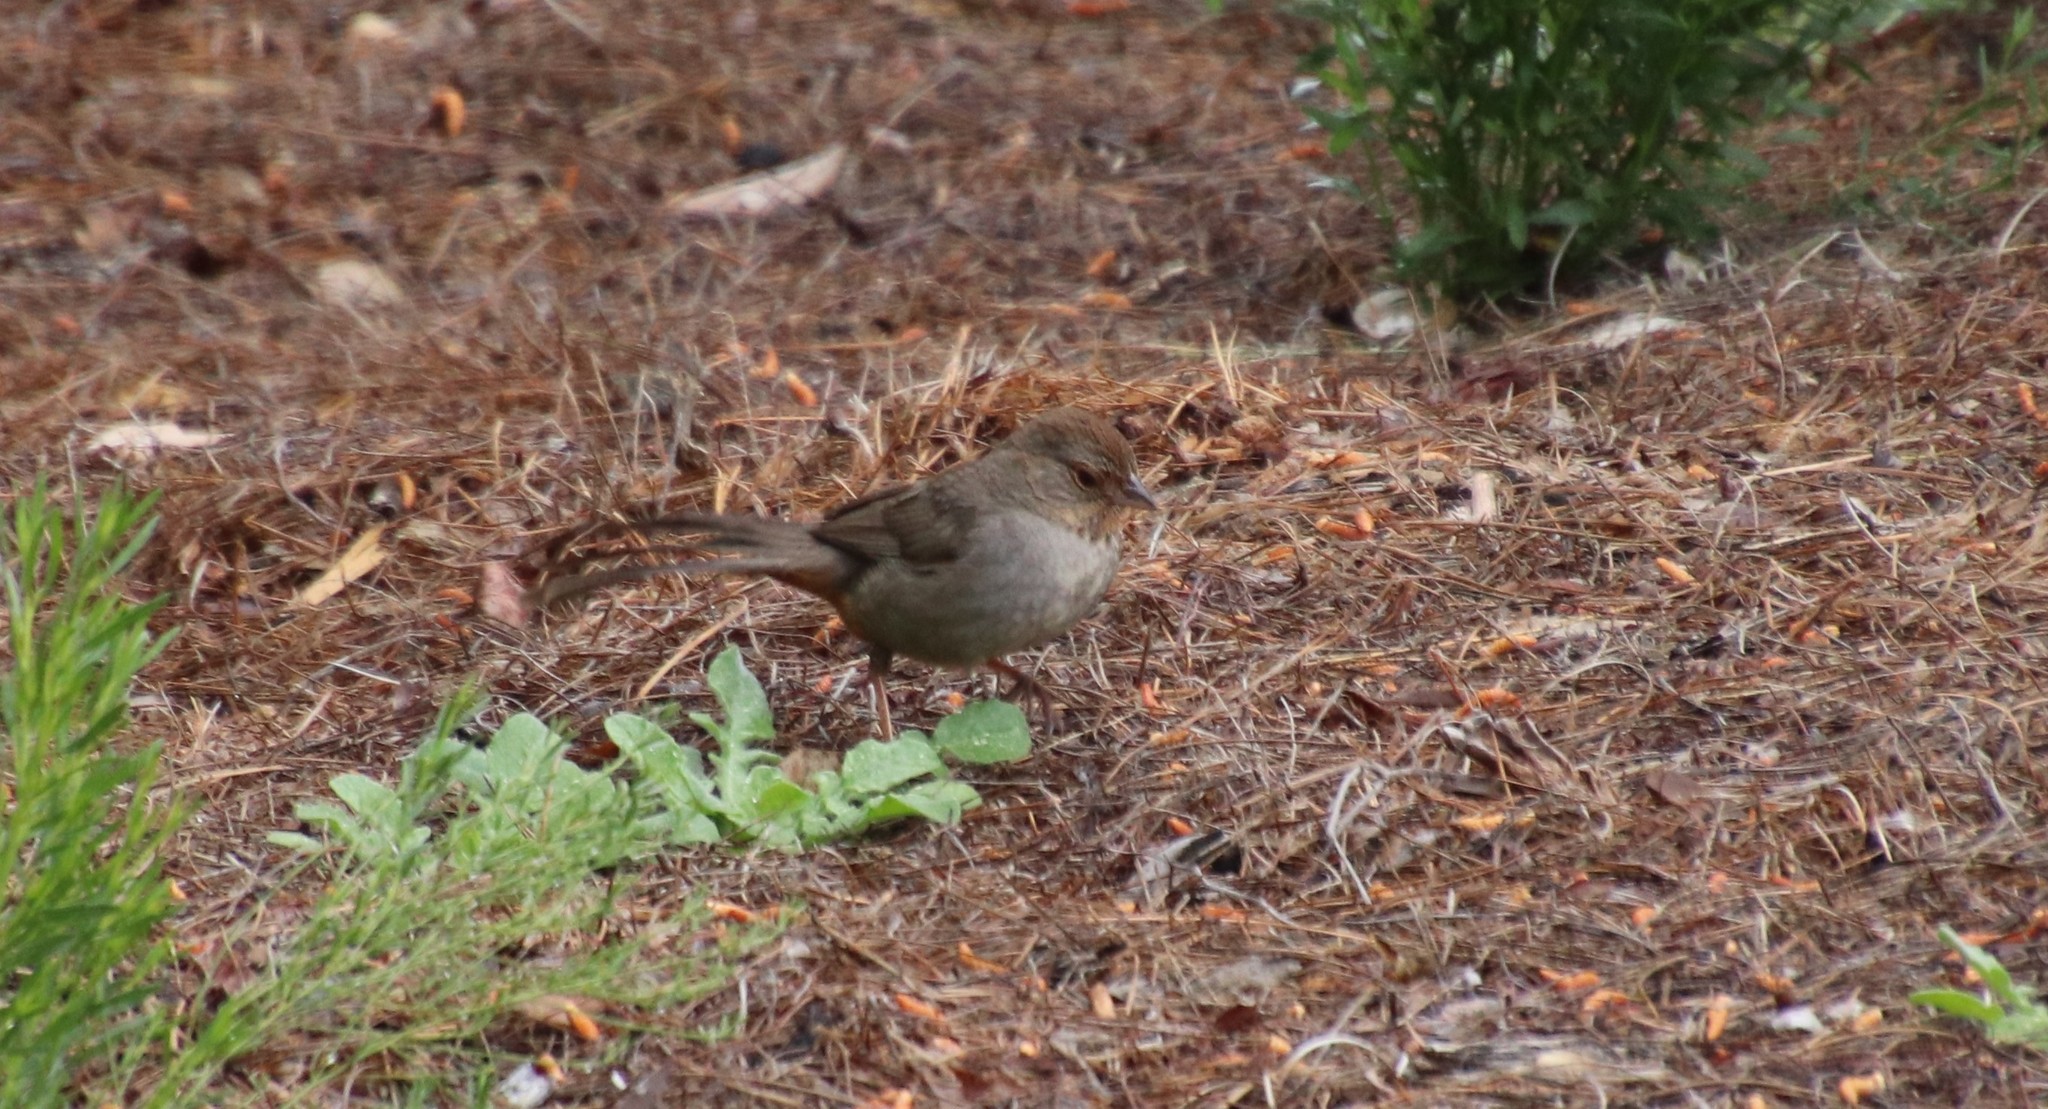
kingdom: Animalia
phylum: Chordata
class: Aves
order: Passeriformes
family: Passerellidae
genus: Melozone
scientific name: Melozone crissalis
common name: California towhee
